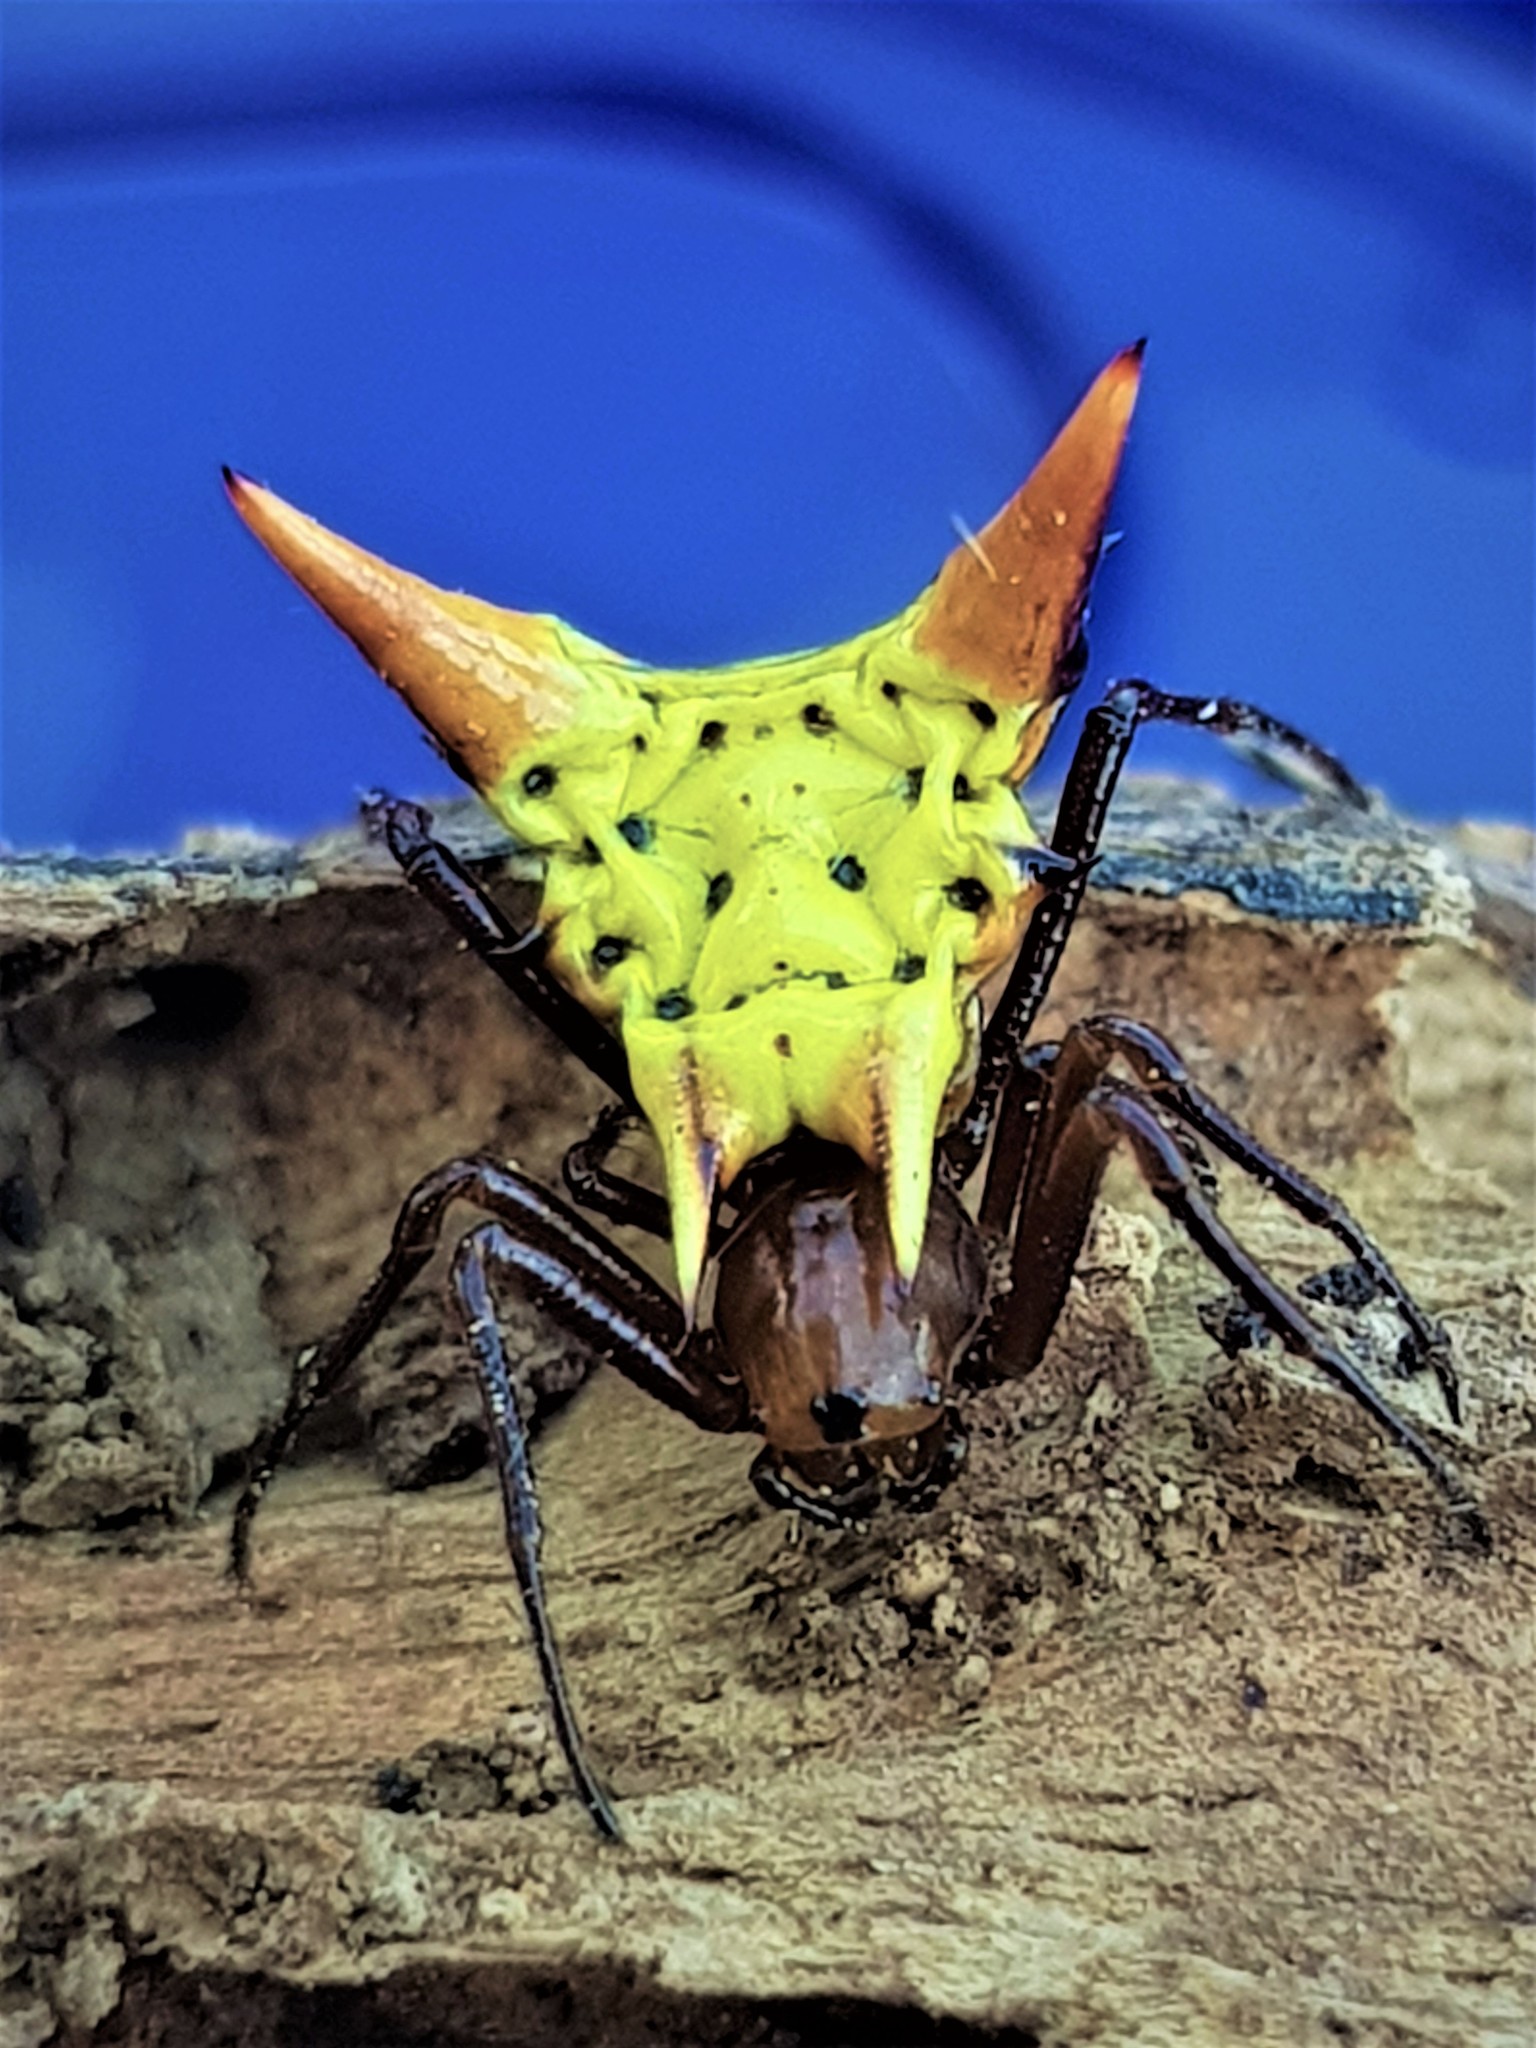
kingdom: Animalia
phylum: Arthropoda
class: Arachnida
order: Araneae
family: Araneidae
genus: Micrathena
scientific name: Micrathena flaveola
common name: Orb weavers
